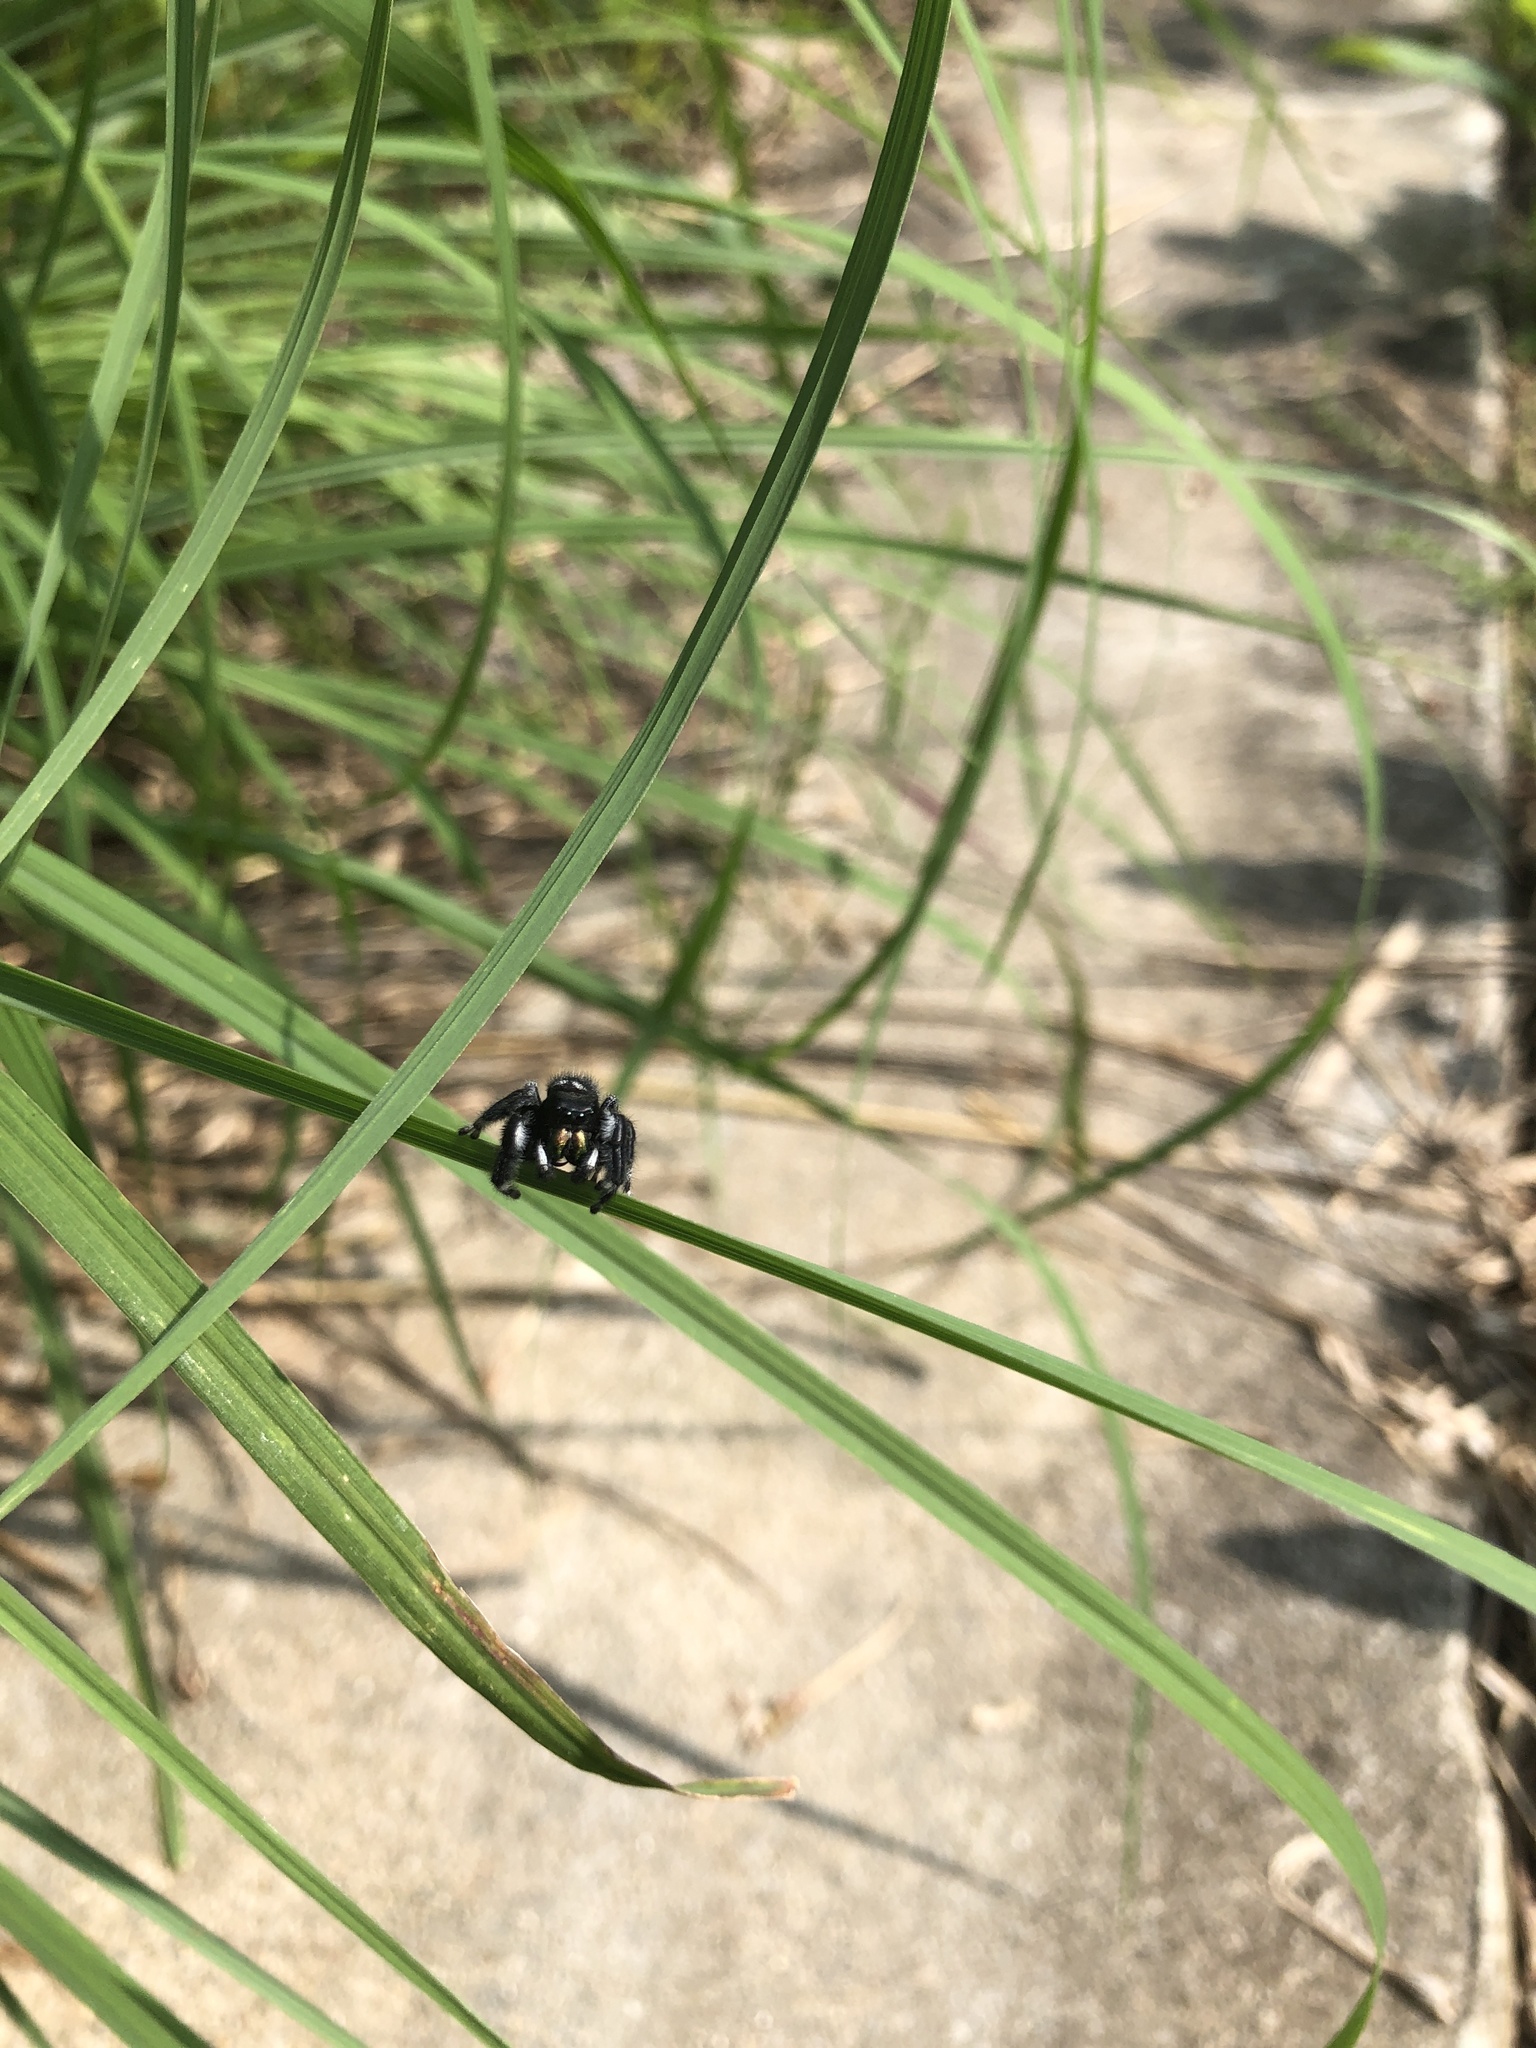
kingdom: Animalia
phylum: Arthropoda
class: Arachnida
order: Araneae
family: Salticidae
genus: Phidippus
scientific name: Phidippus audax
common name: Bold jumper
